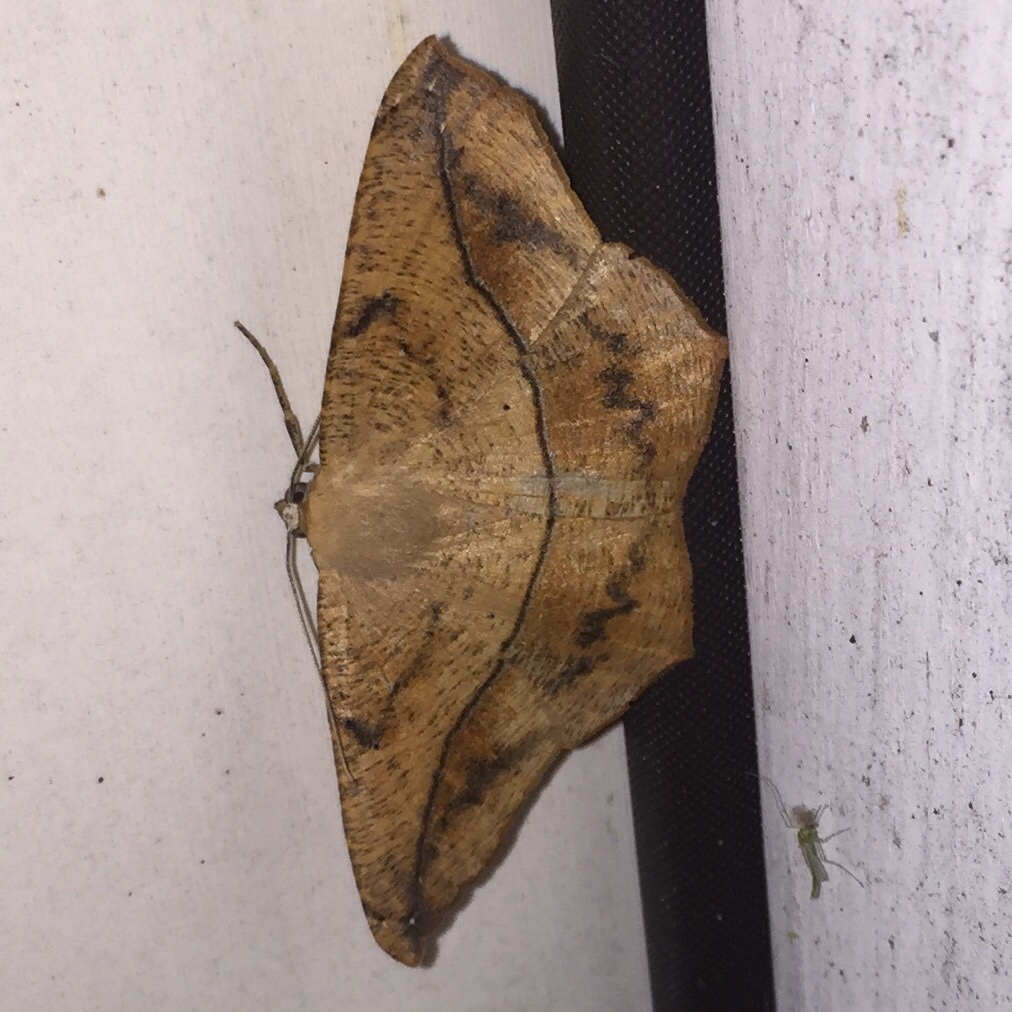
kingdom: Animalia
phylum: Arthropoda
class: Insecta
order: Lepidoptera
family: Geometridae
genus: Prochoerodes
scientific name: Prochoerodes lineola
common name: Large maple spanworm
